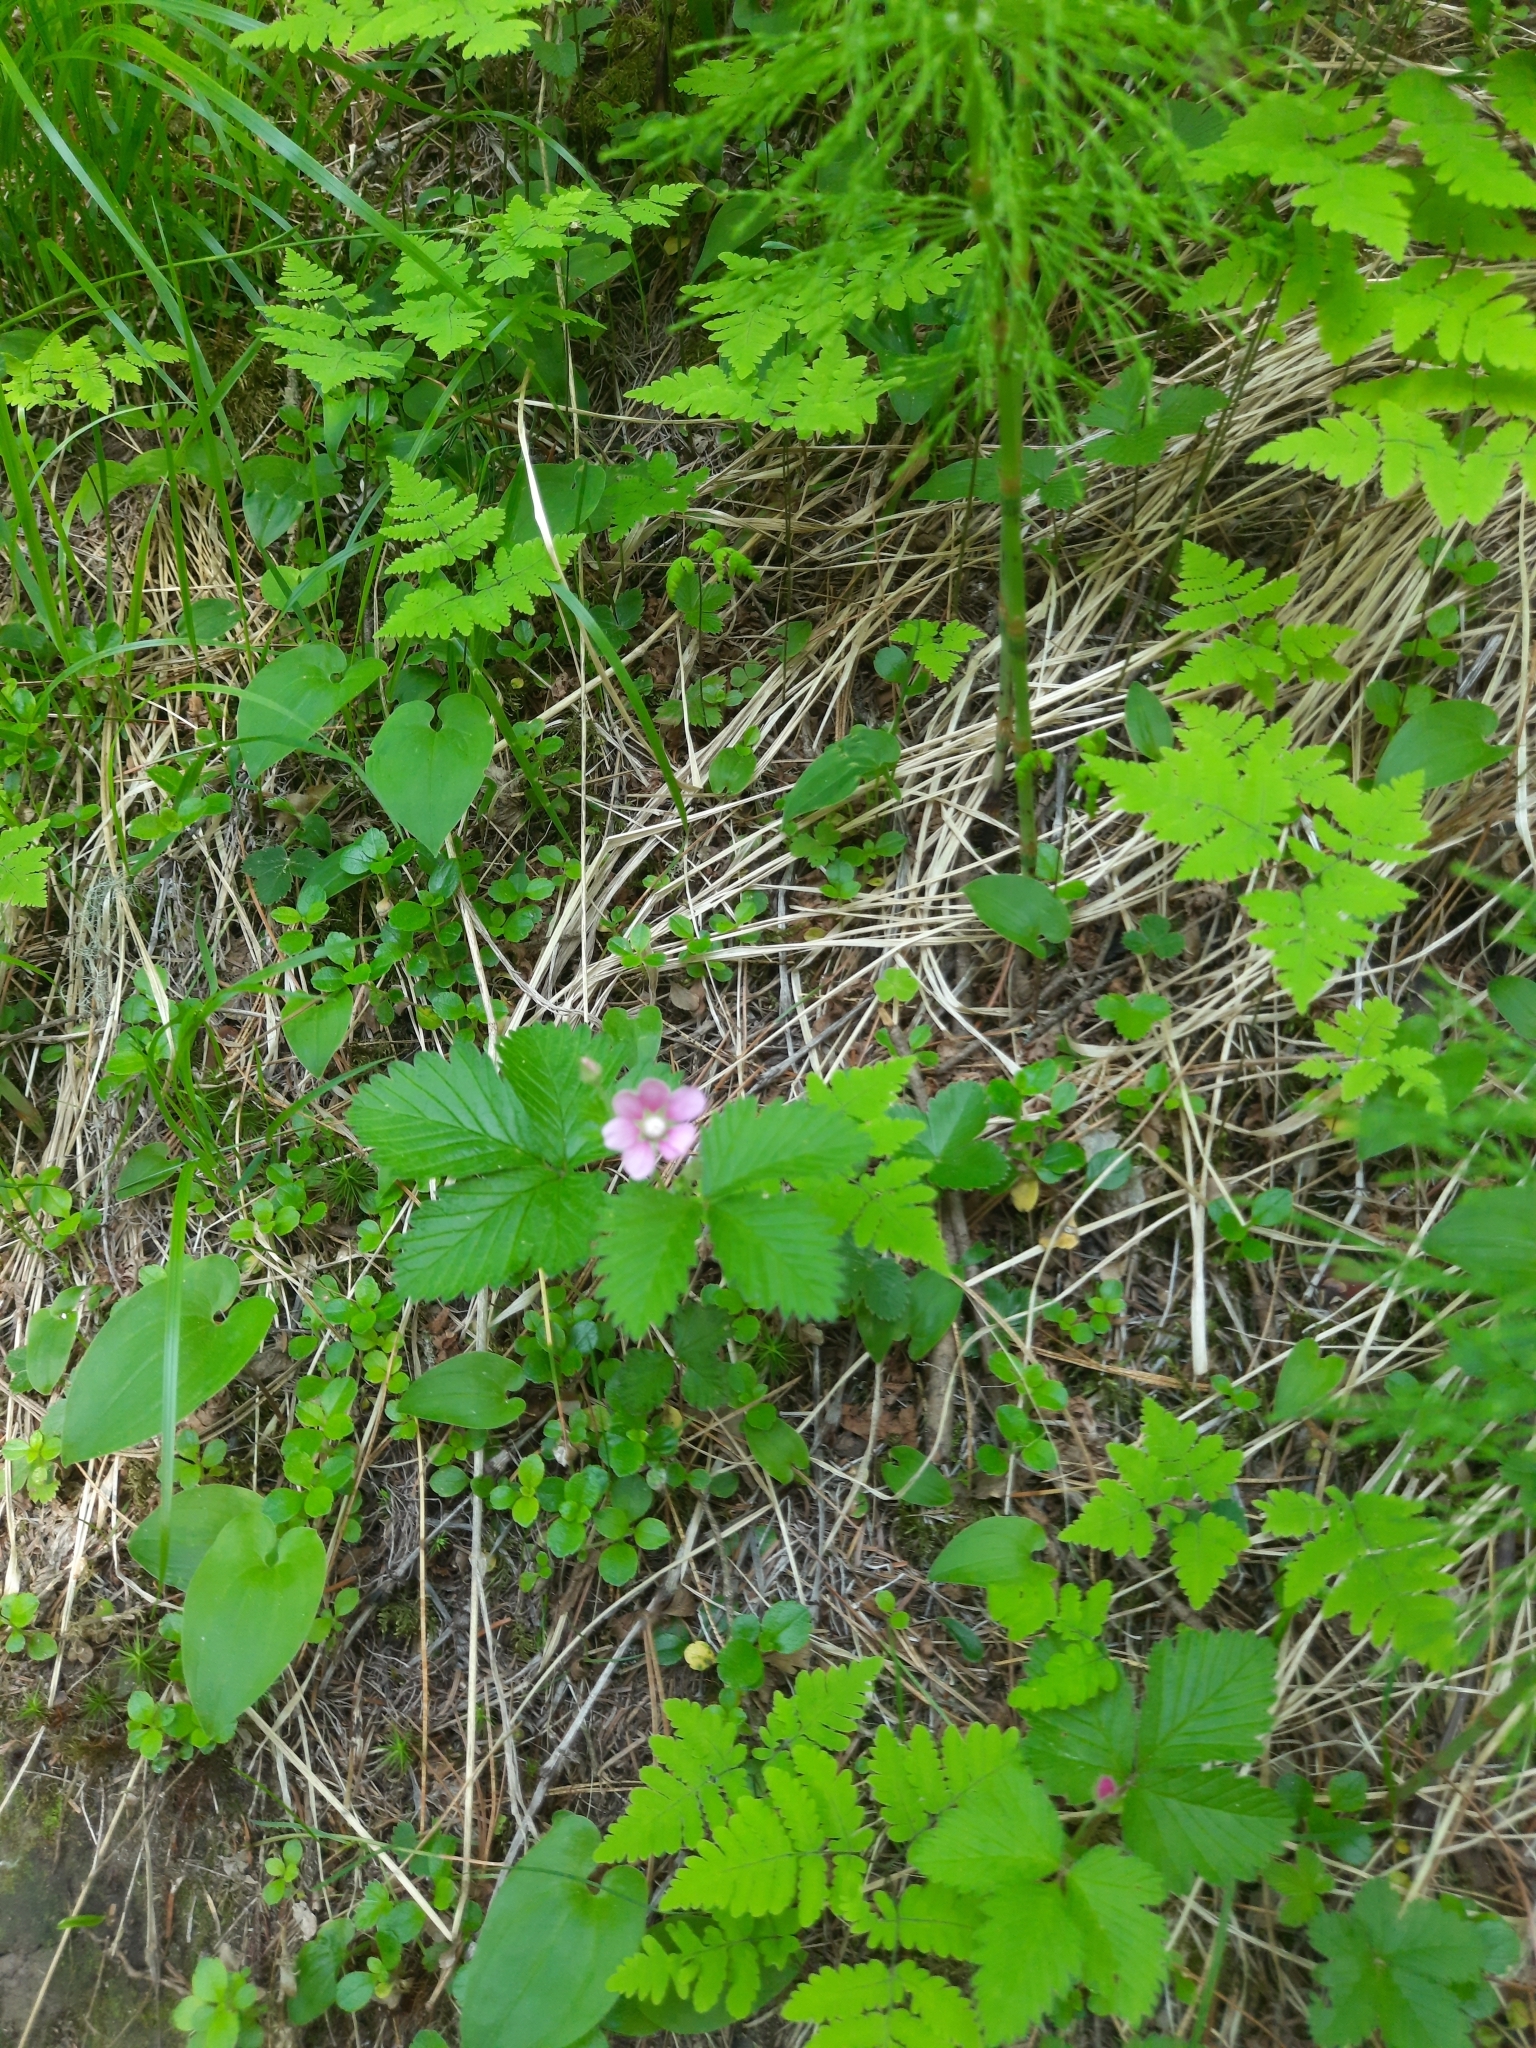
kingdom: Plantae
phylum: Tracheophyta
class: Magnoliopsida
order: Rosales
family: Rosaceae
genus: Rubus
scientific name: Rubus arcticus
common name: Arctic bramble
